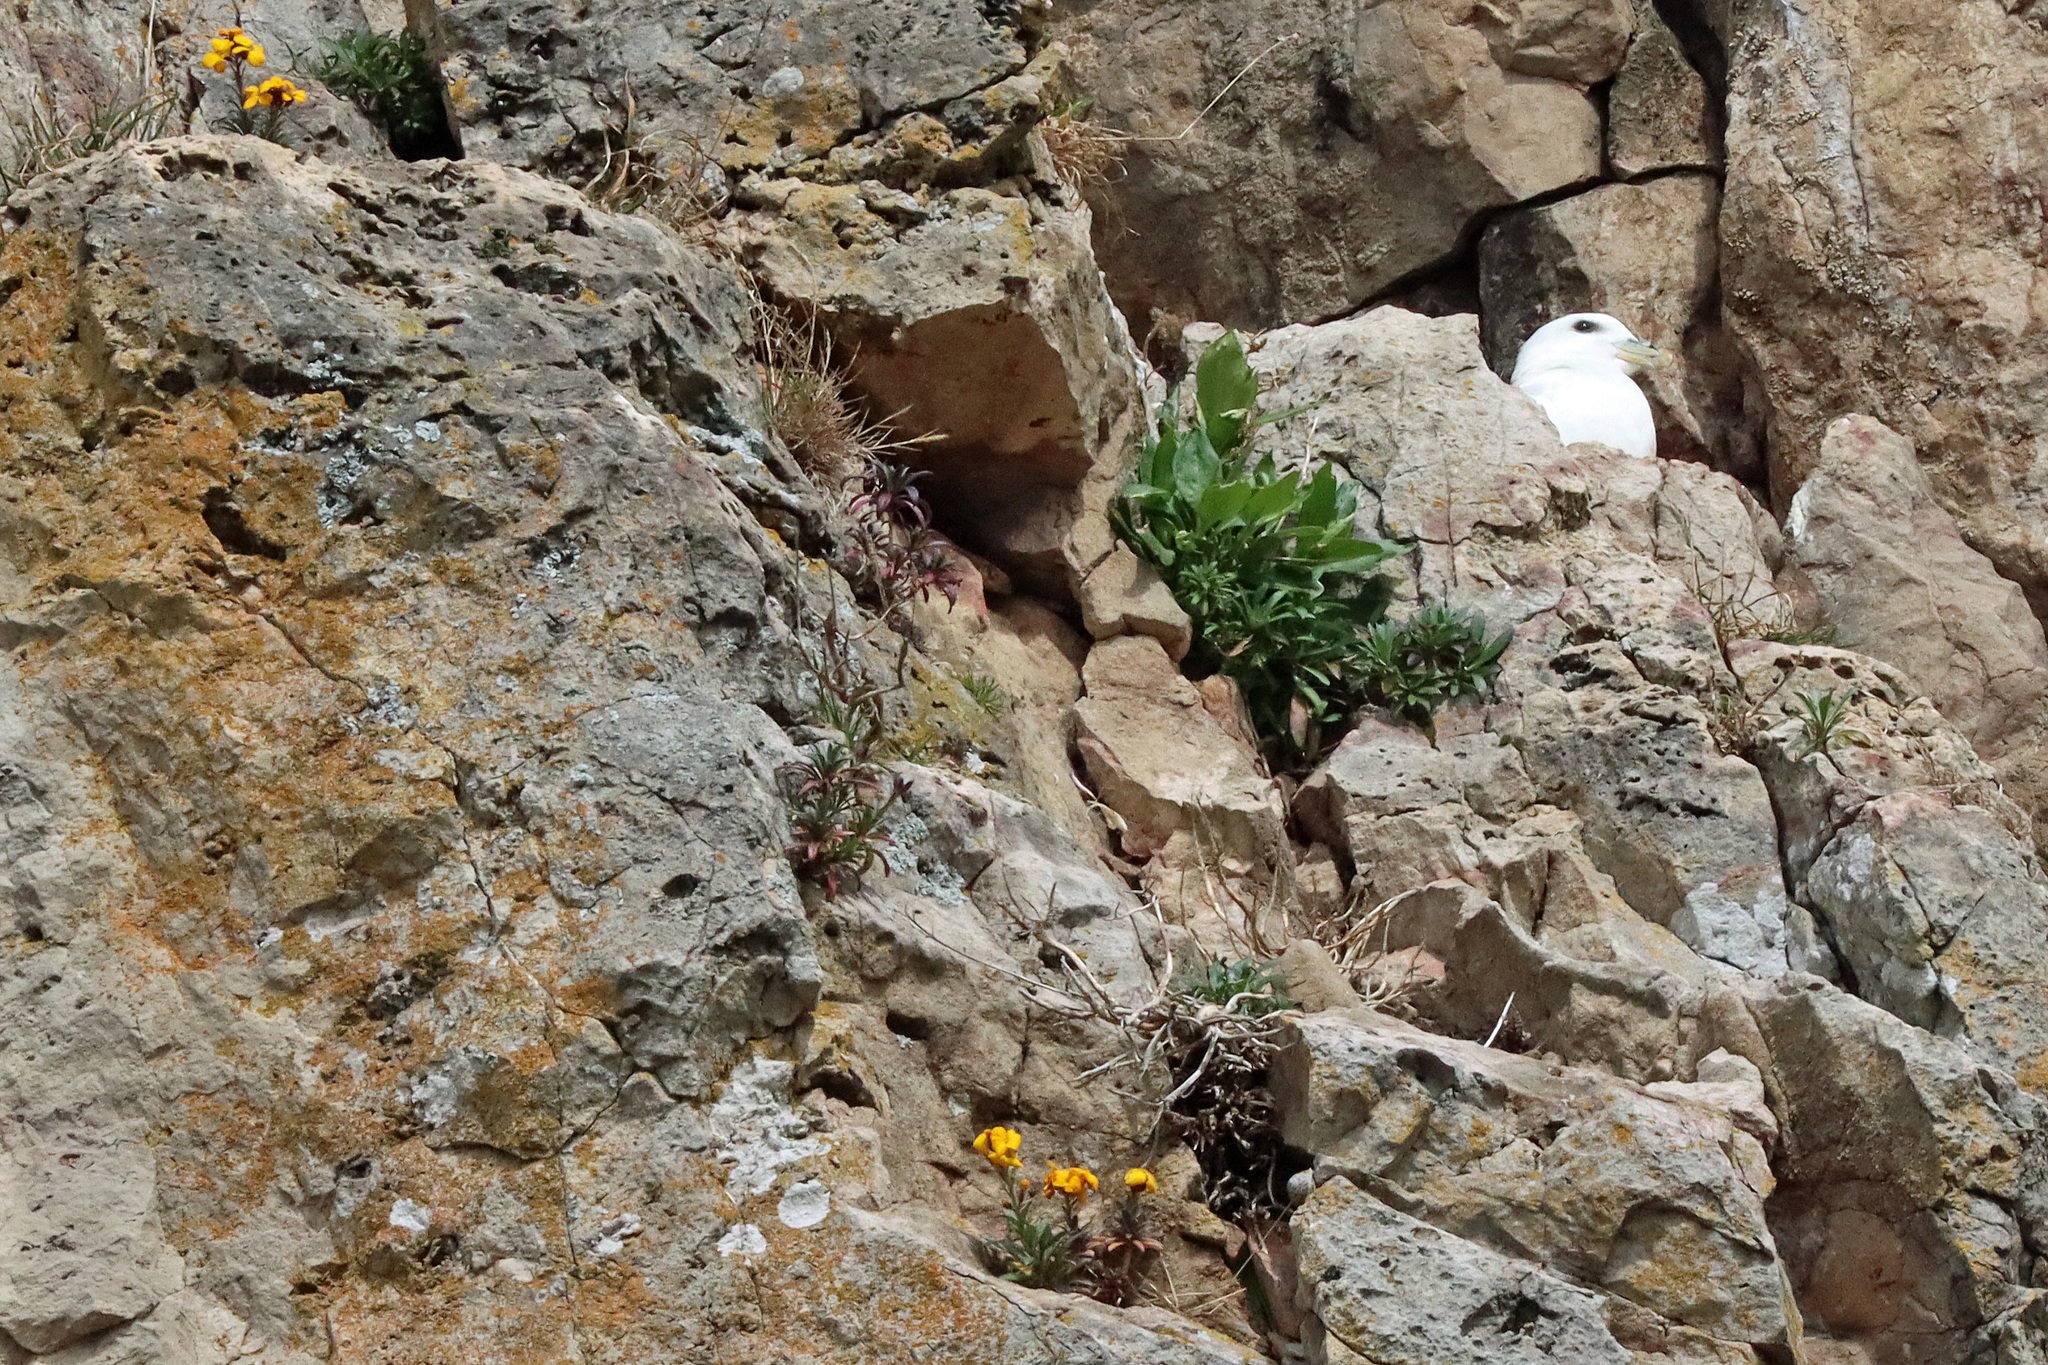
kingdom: Animalia
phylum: Chordata
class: Aves
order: Procellariiformes
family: Procellariidae
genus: Fulmarus
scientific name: Fulmarus glacialis
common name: Northern fulmar
